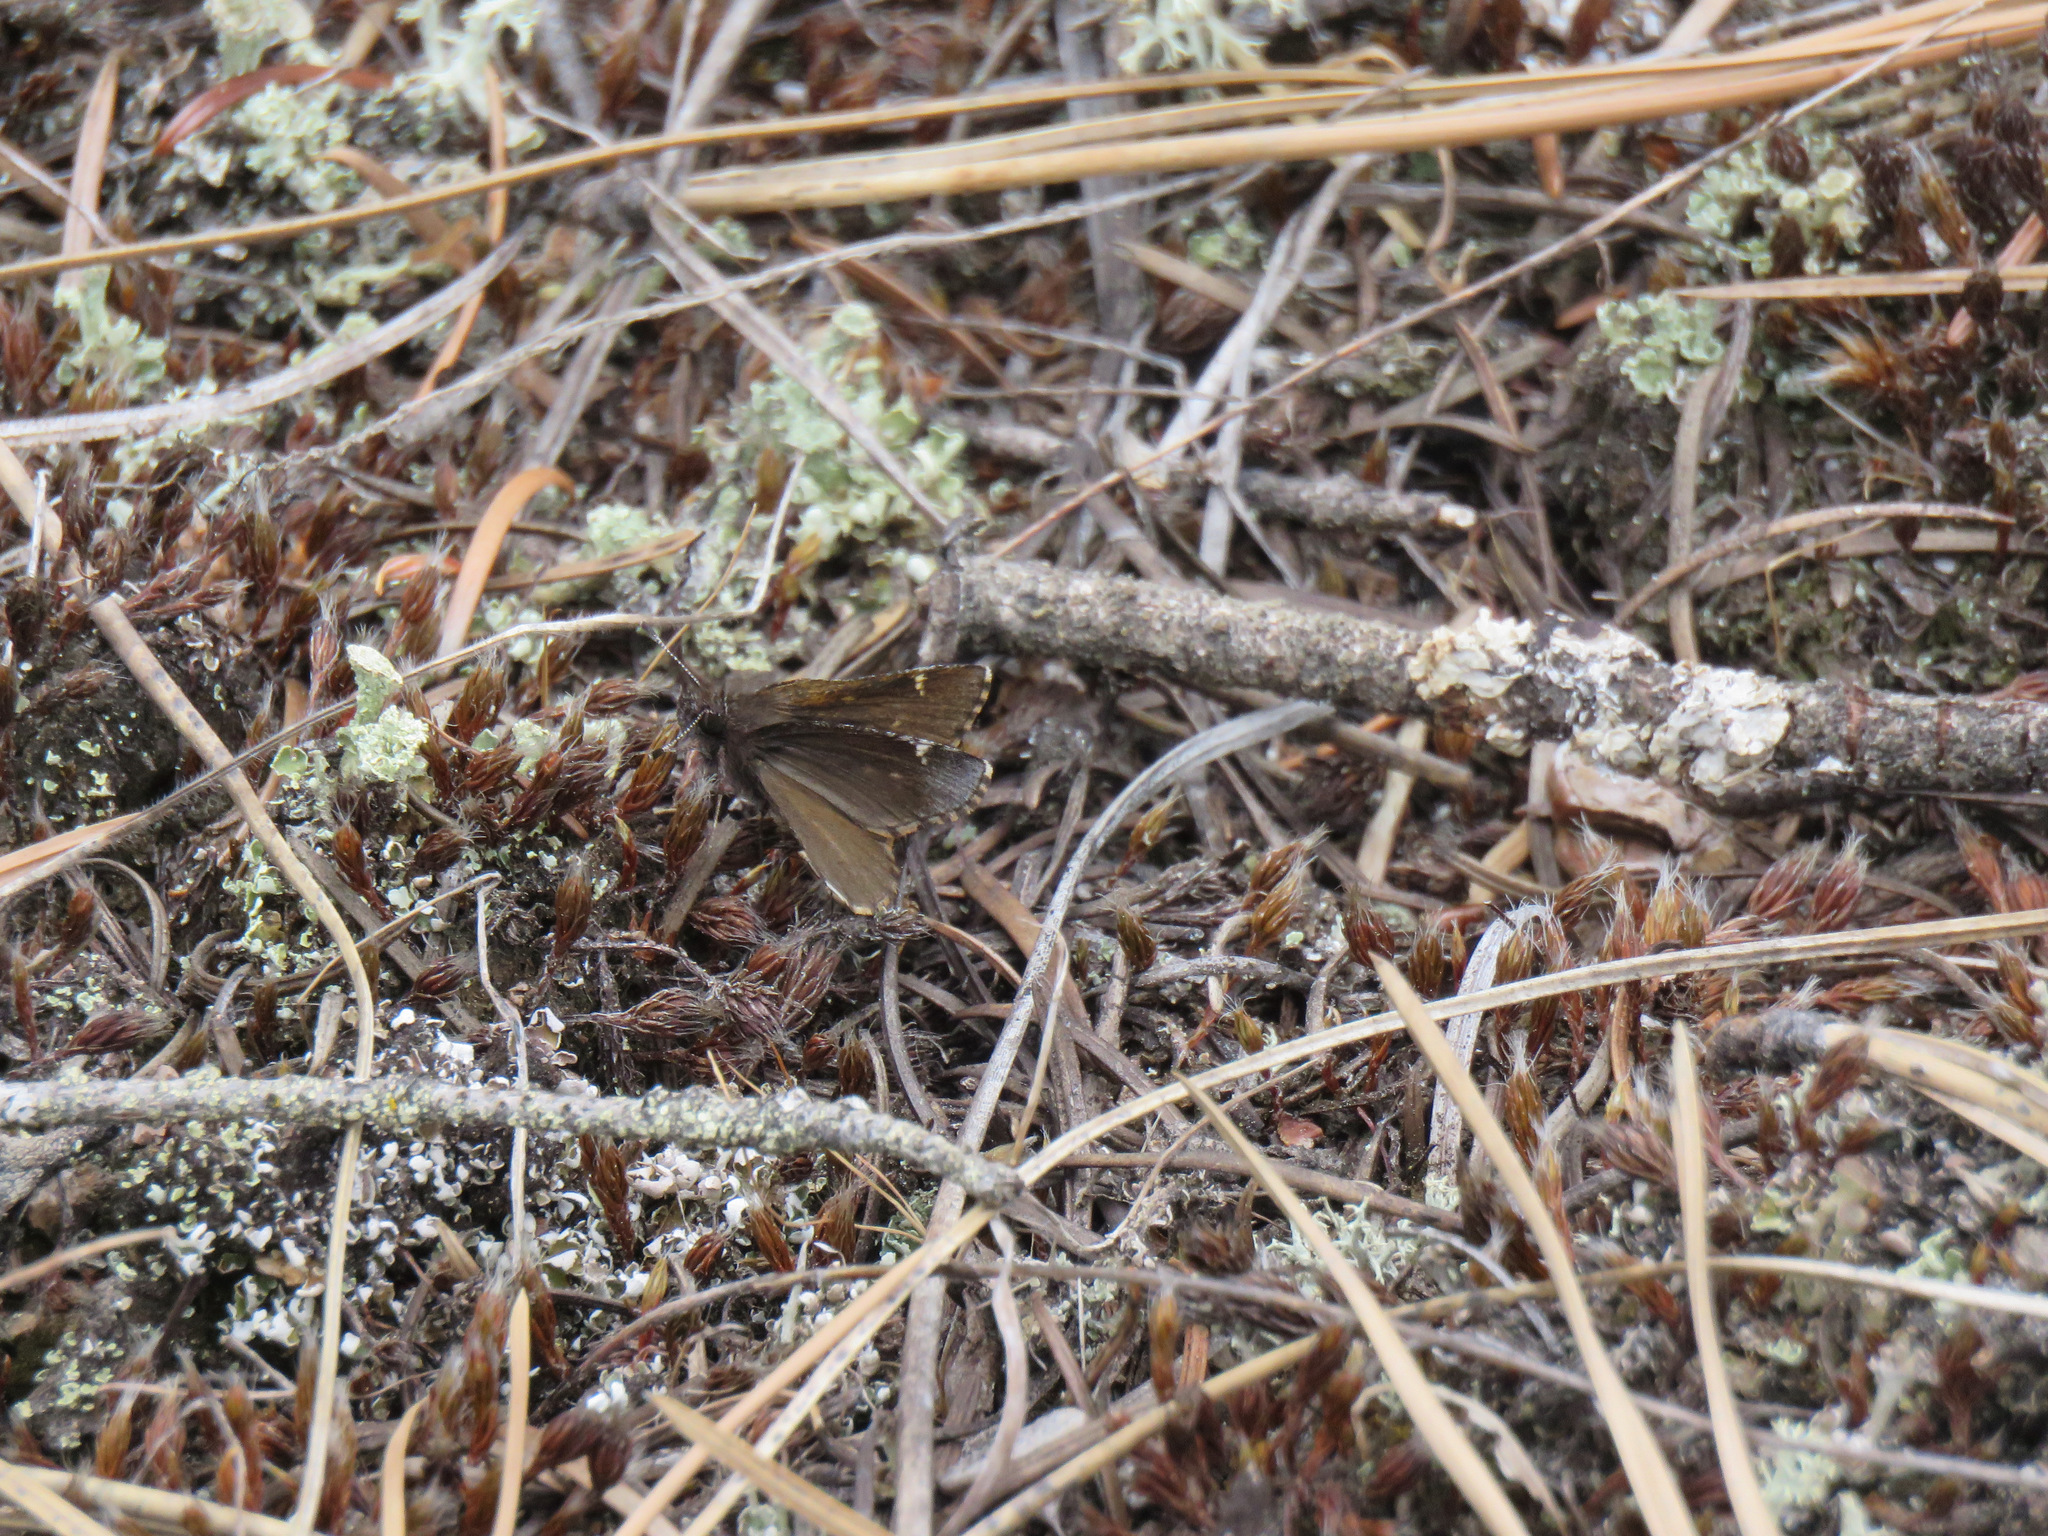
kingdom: Animalia
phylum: Arthropoda
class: Insecta
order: Lepidoptera
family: Hesperiidae
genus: Mastor
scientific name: Mastor vialis
